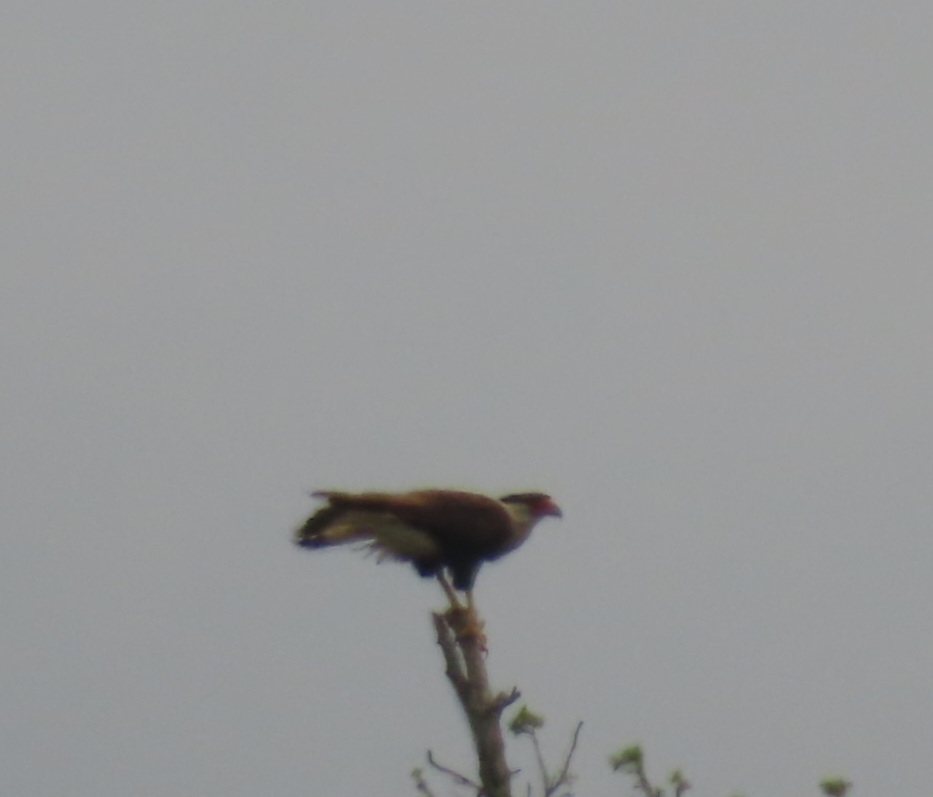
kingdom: Animalia
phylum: Chordata
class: Aves
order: Falconiformes
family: Falconidae
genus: Caracara
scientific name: Caracara plancus
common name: Southern caracara
